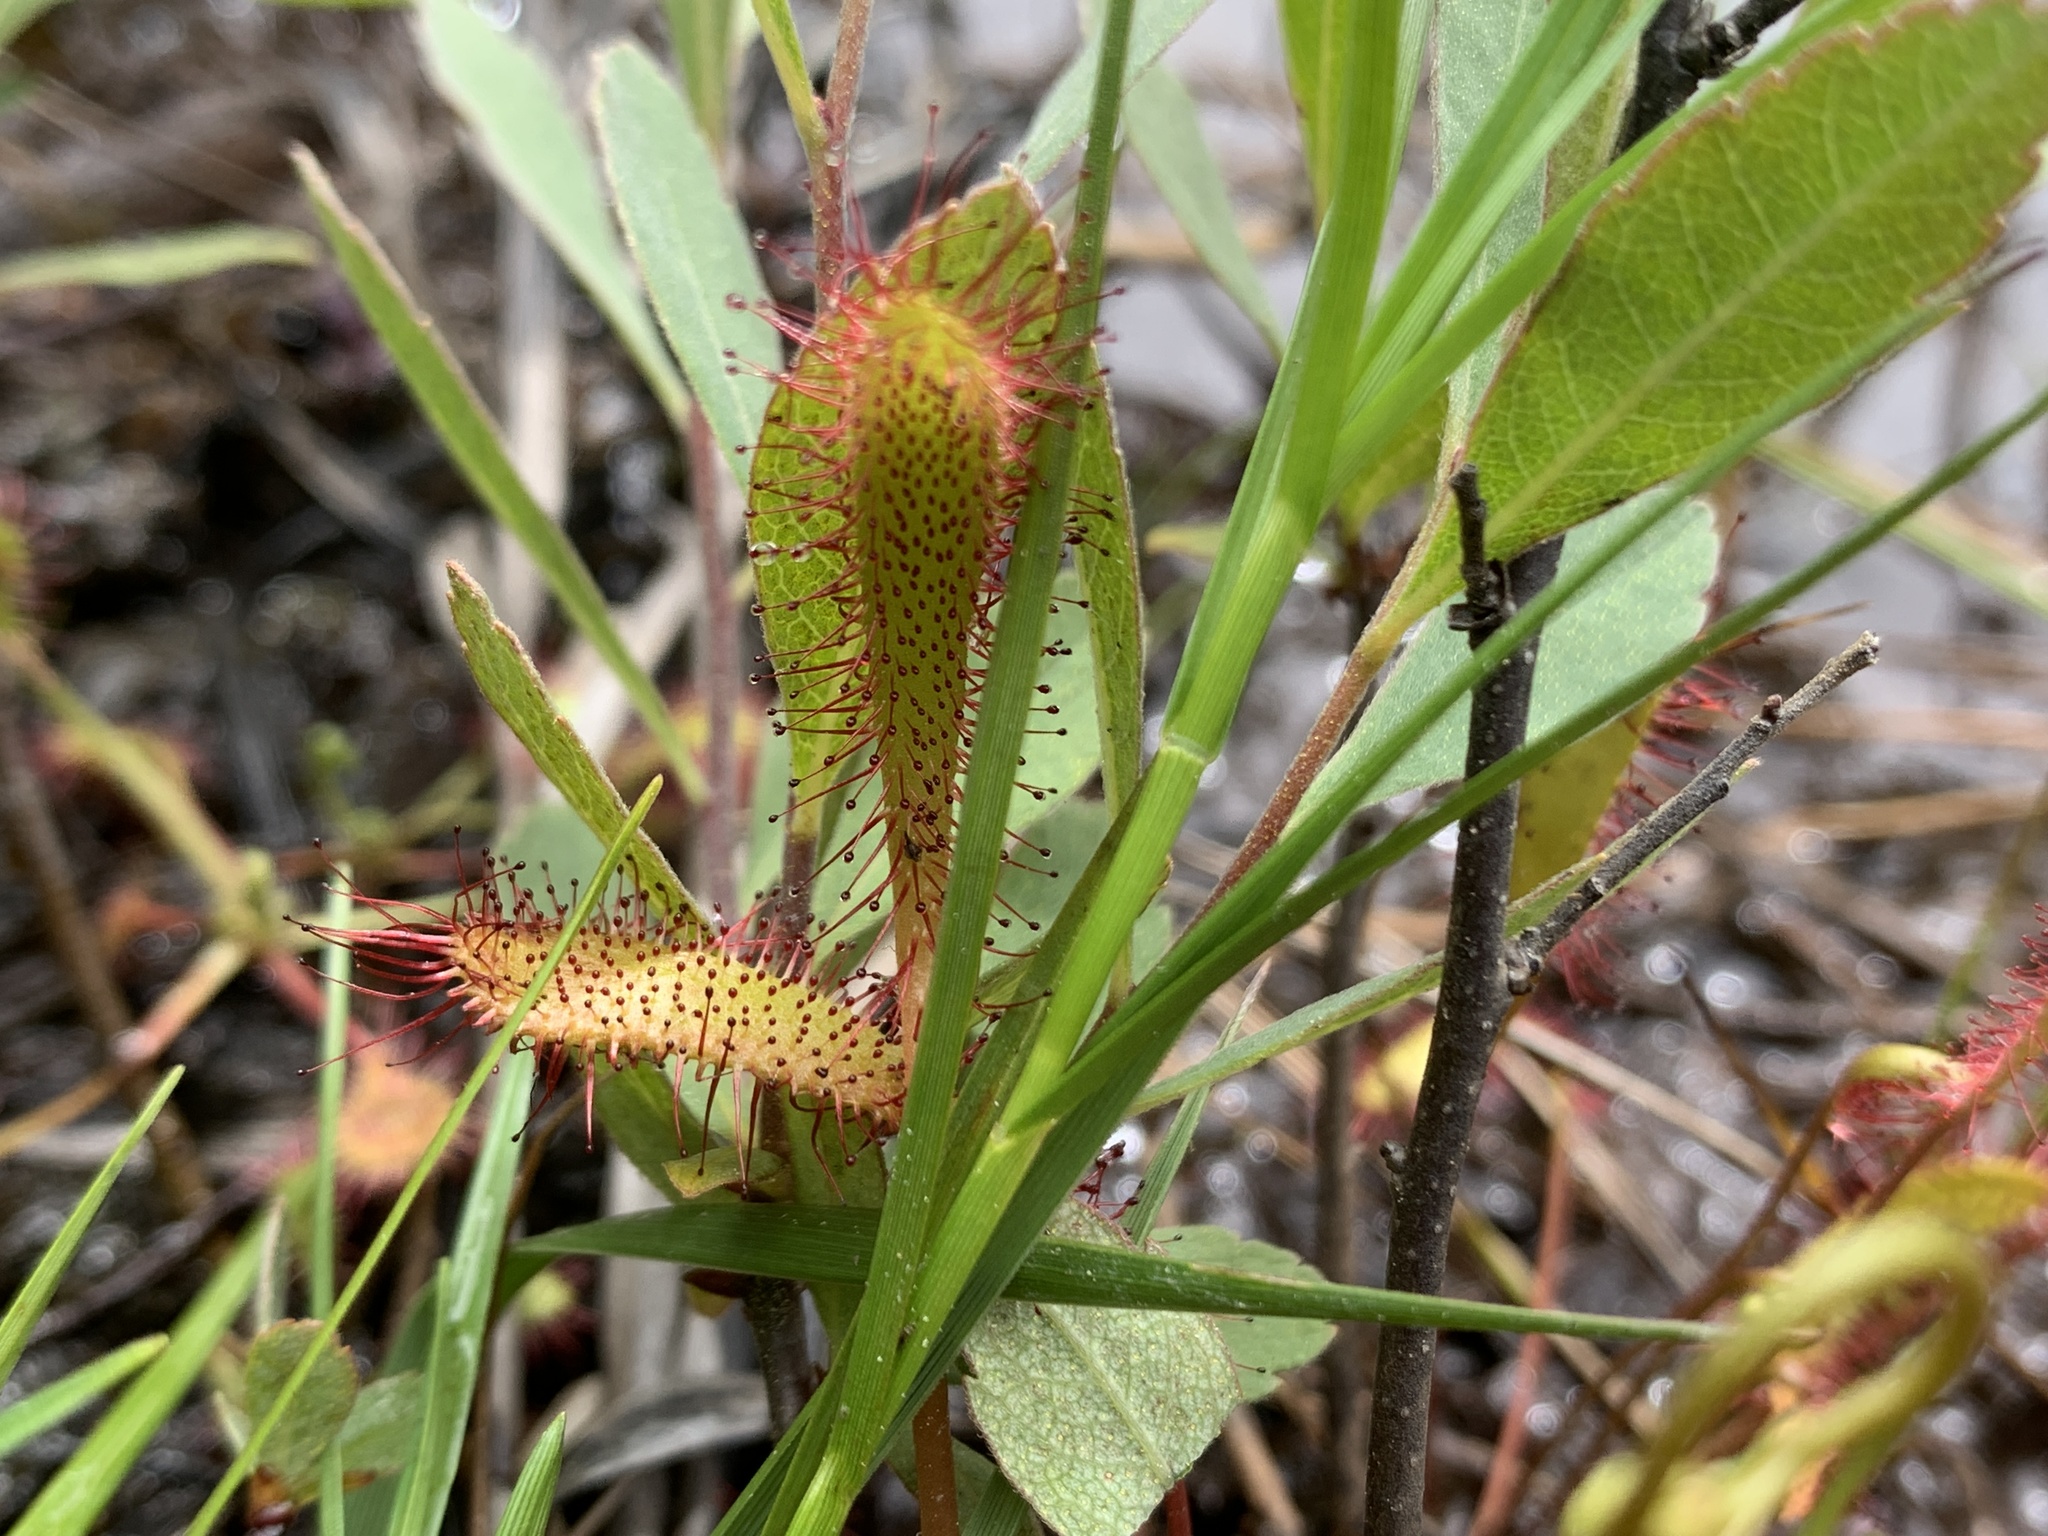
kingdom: Plantae
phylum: Tracheophyta
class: Magnoliopsida
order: Caryophyllales
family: Droseraceae
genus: Drosera
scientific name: Drosera anglica
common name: Great sundew
